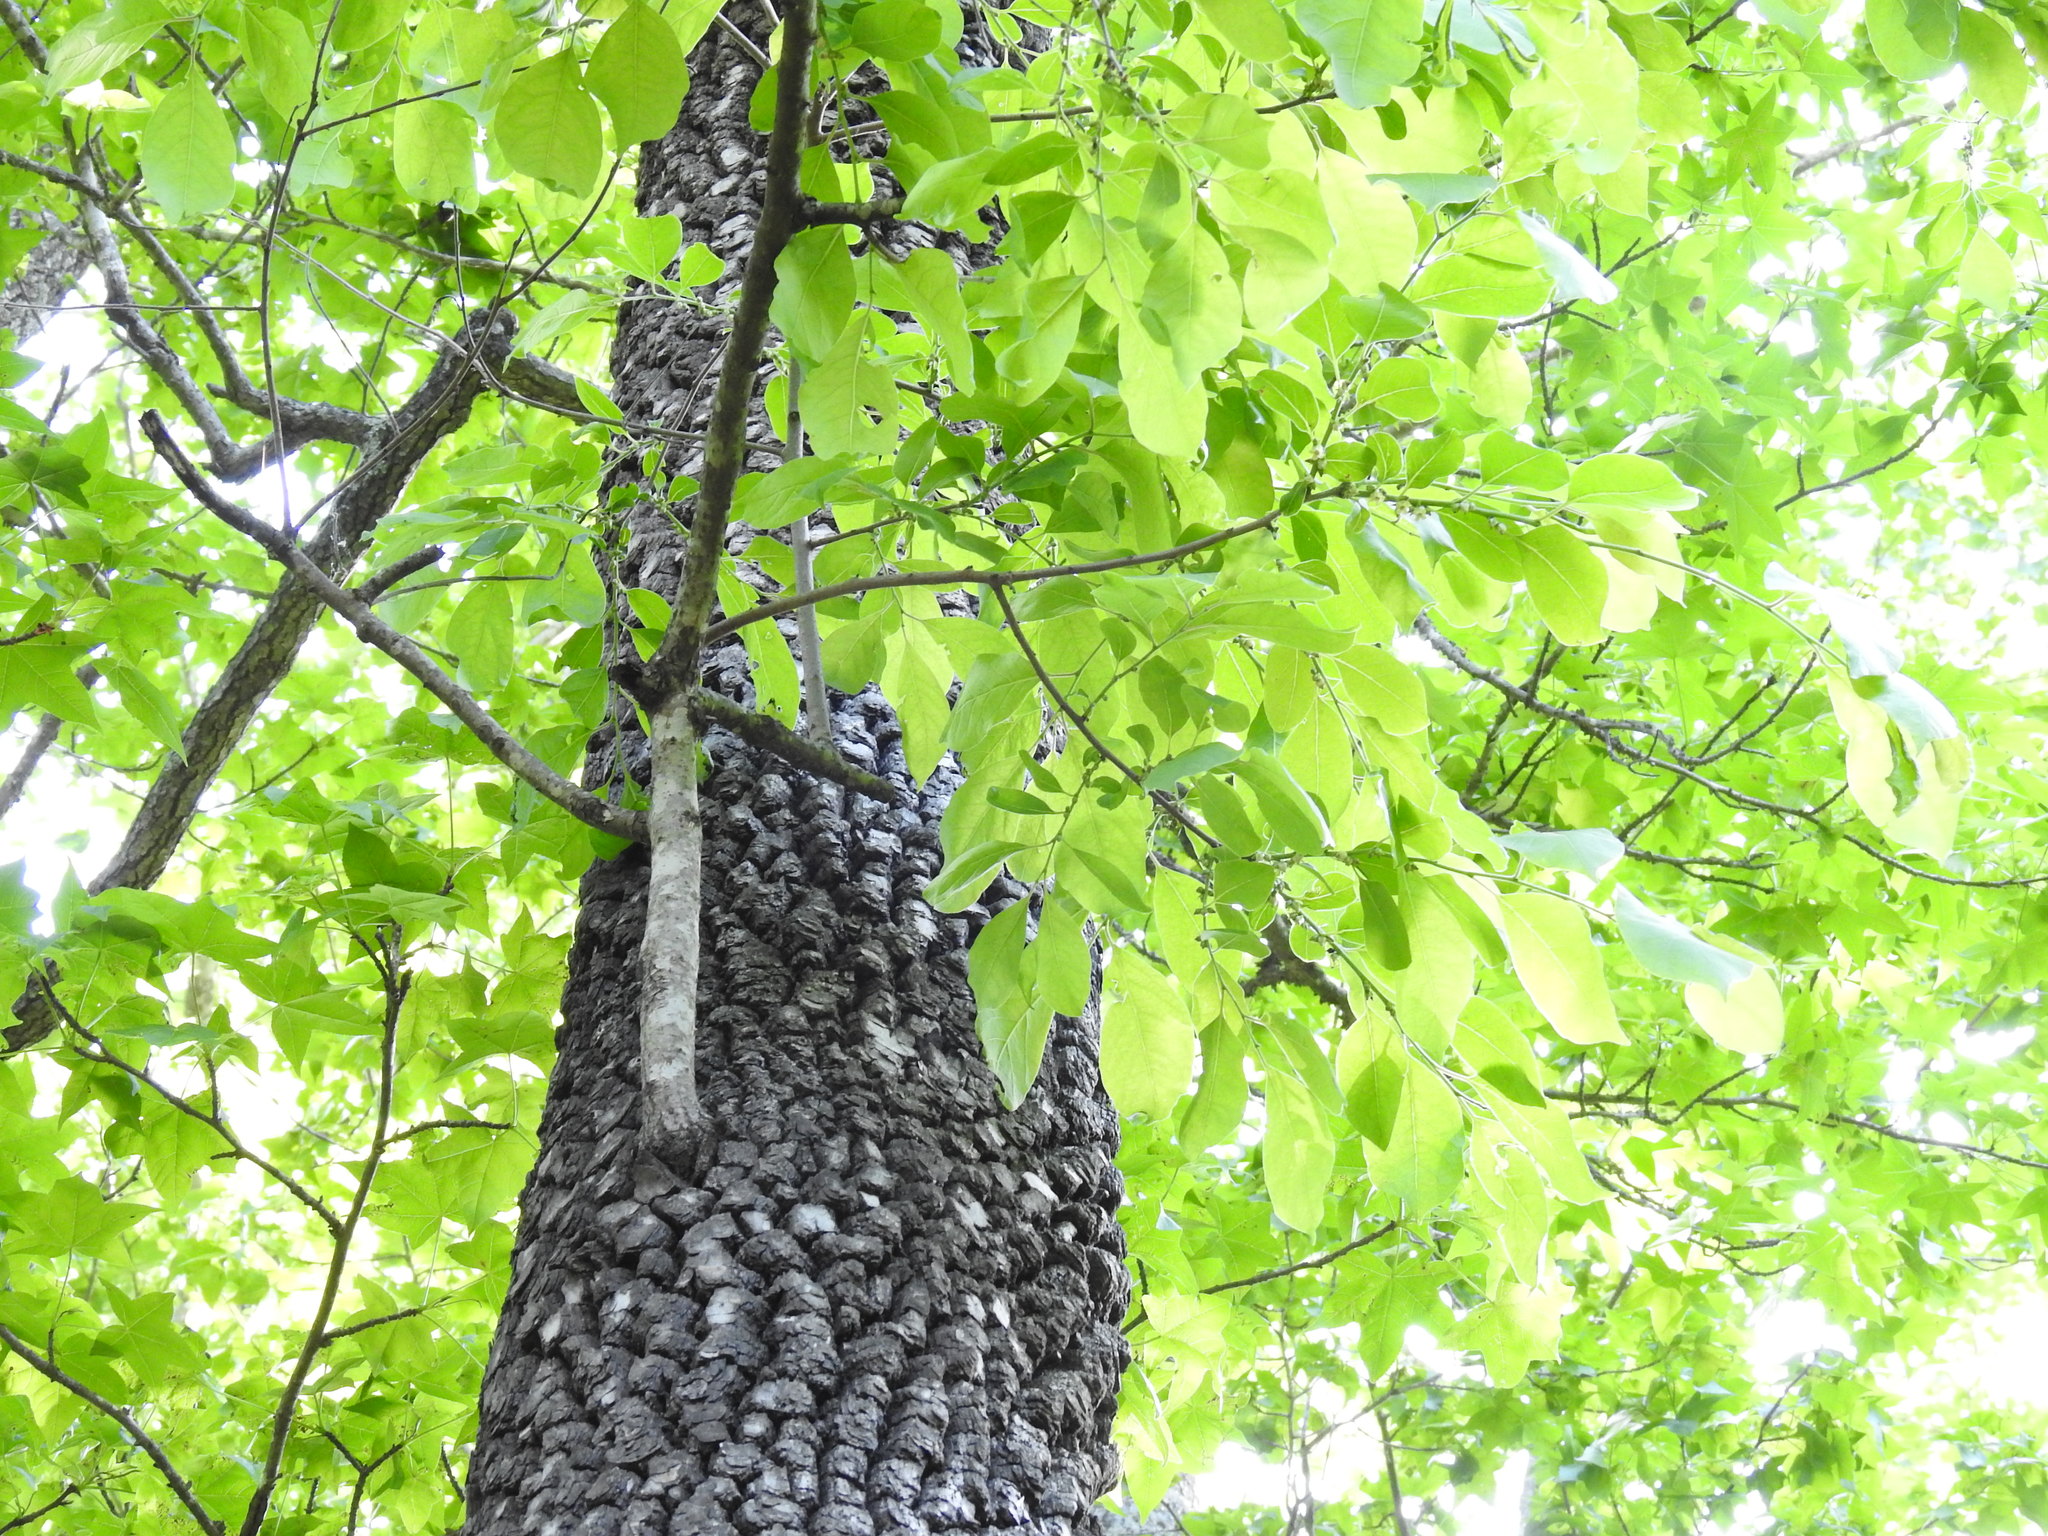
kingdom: Plantae
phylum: Tracheophyta
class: Magnoliopsida
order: Ericales
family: Ebenaceae
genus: Diospyros
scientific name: Diospyros virginiana
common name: Persimmon
